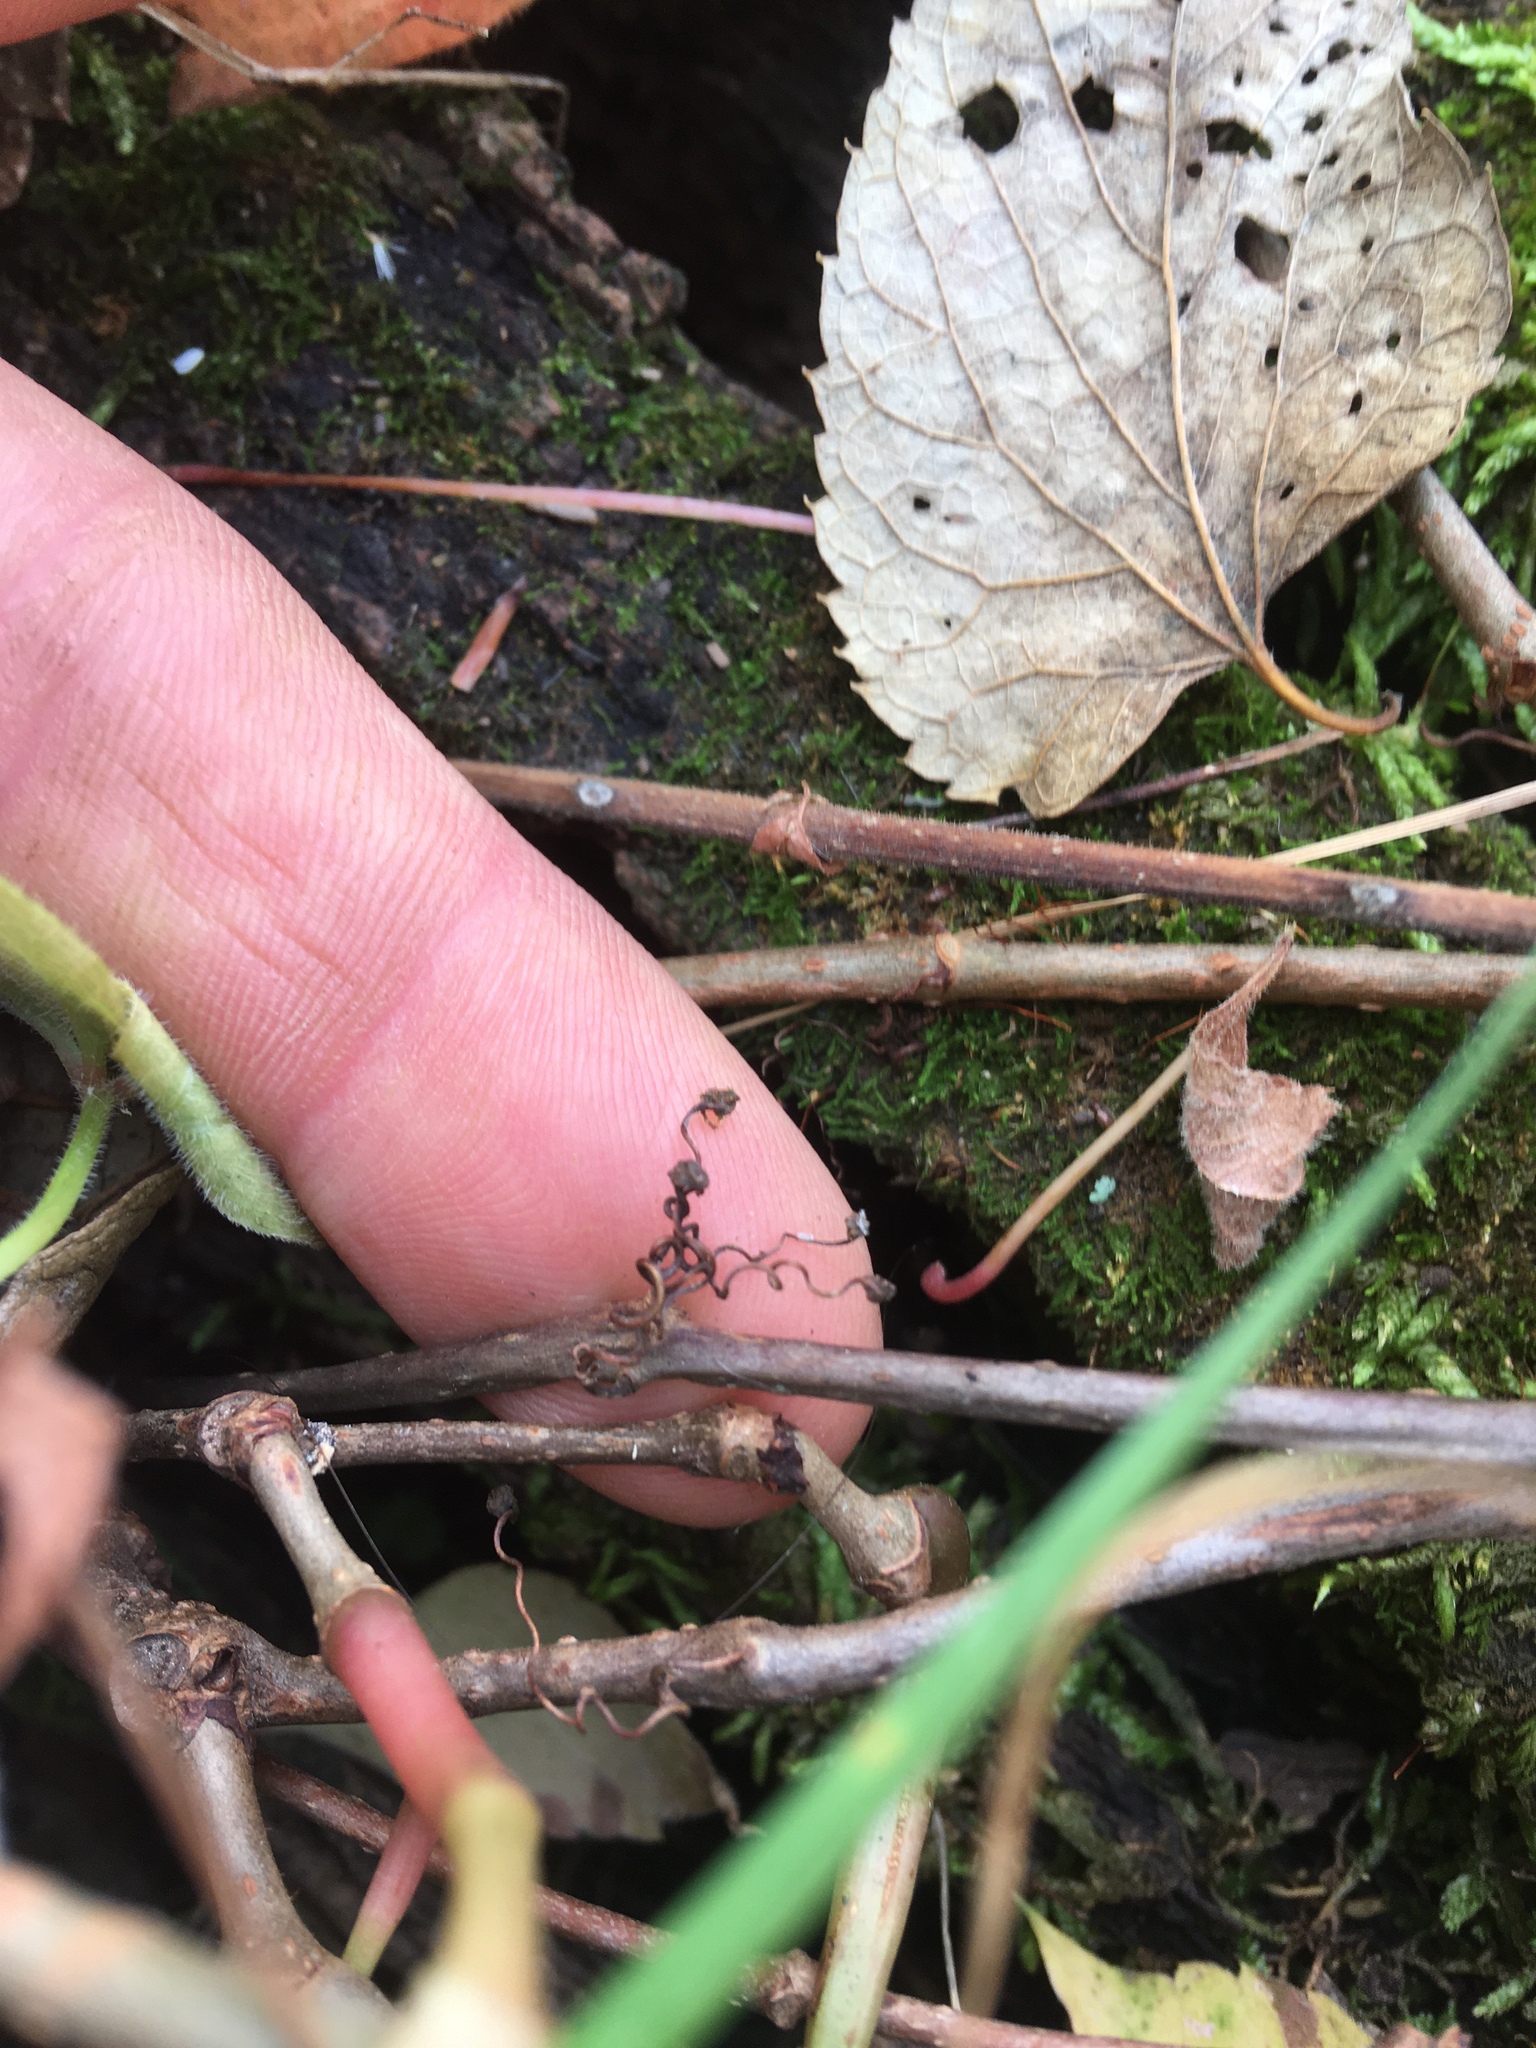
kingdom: Plantae
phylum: Tracheophyta
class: Magnoliopsida
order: Vitales
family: Vitaceae
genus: Parthenocissus
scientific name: Parthenocissus quinquefolia
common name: Virginia-creeper
